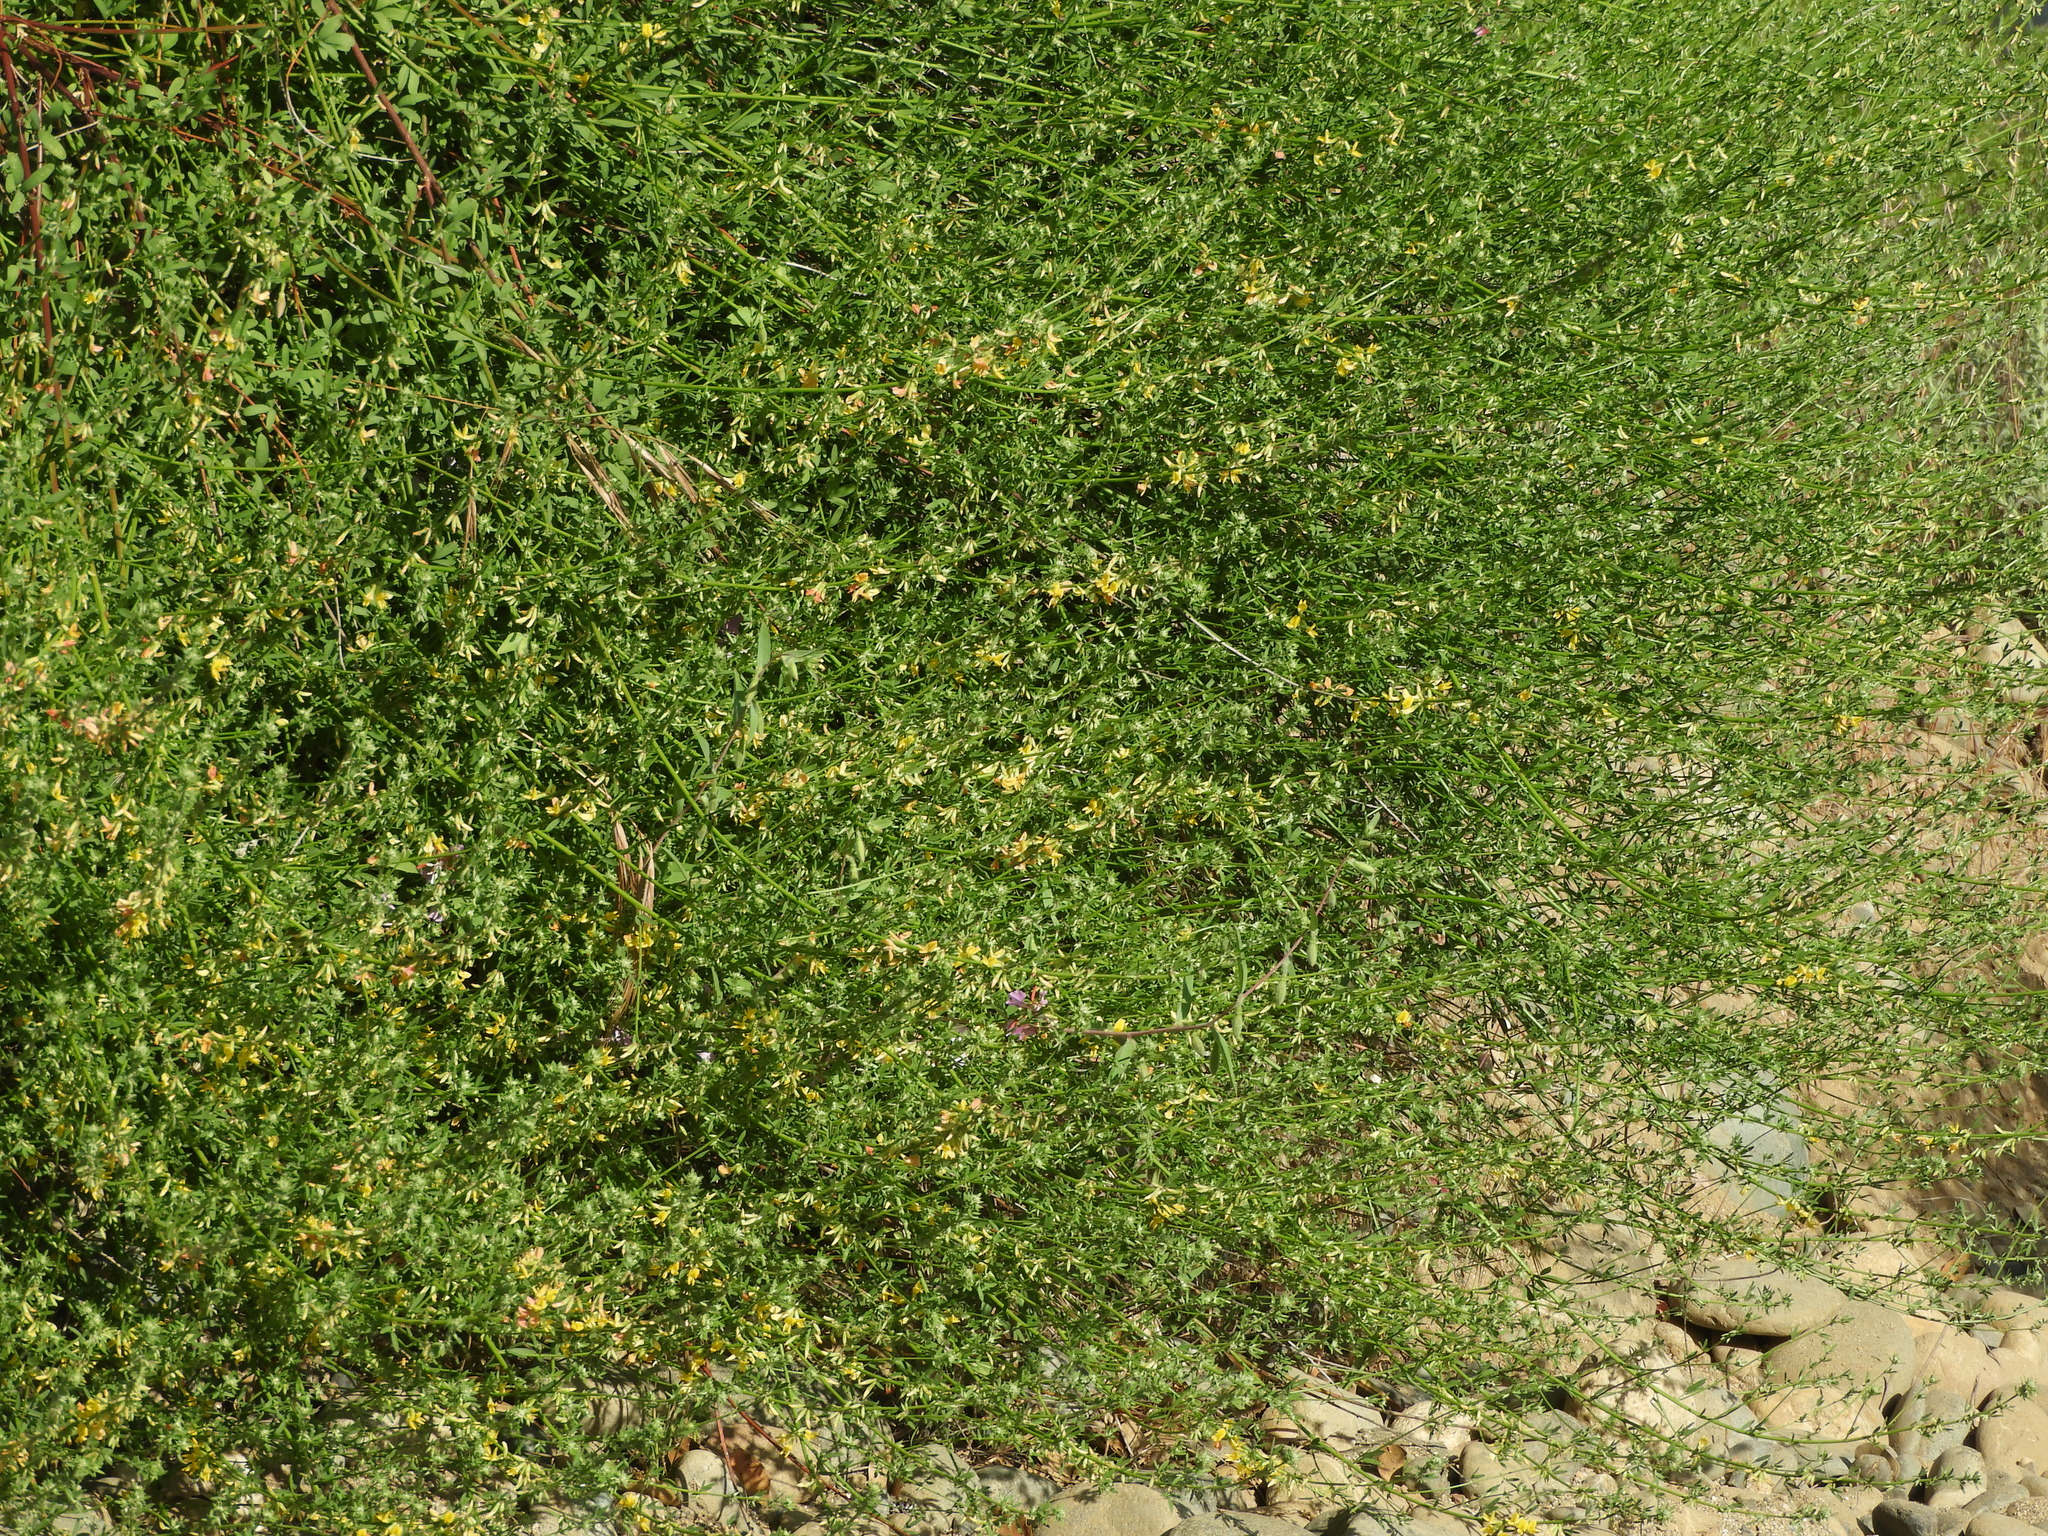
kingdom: Plantae
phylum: Tracheophyta
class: Magnoliopsida
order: Fabales
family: Fabaceae
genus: Acmispon
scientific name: Acmispon glaber
